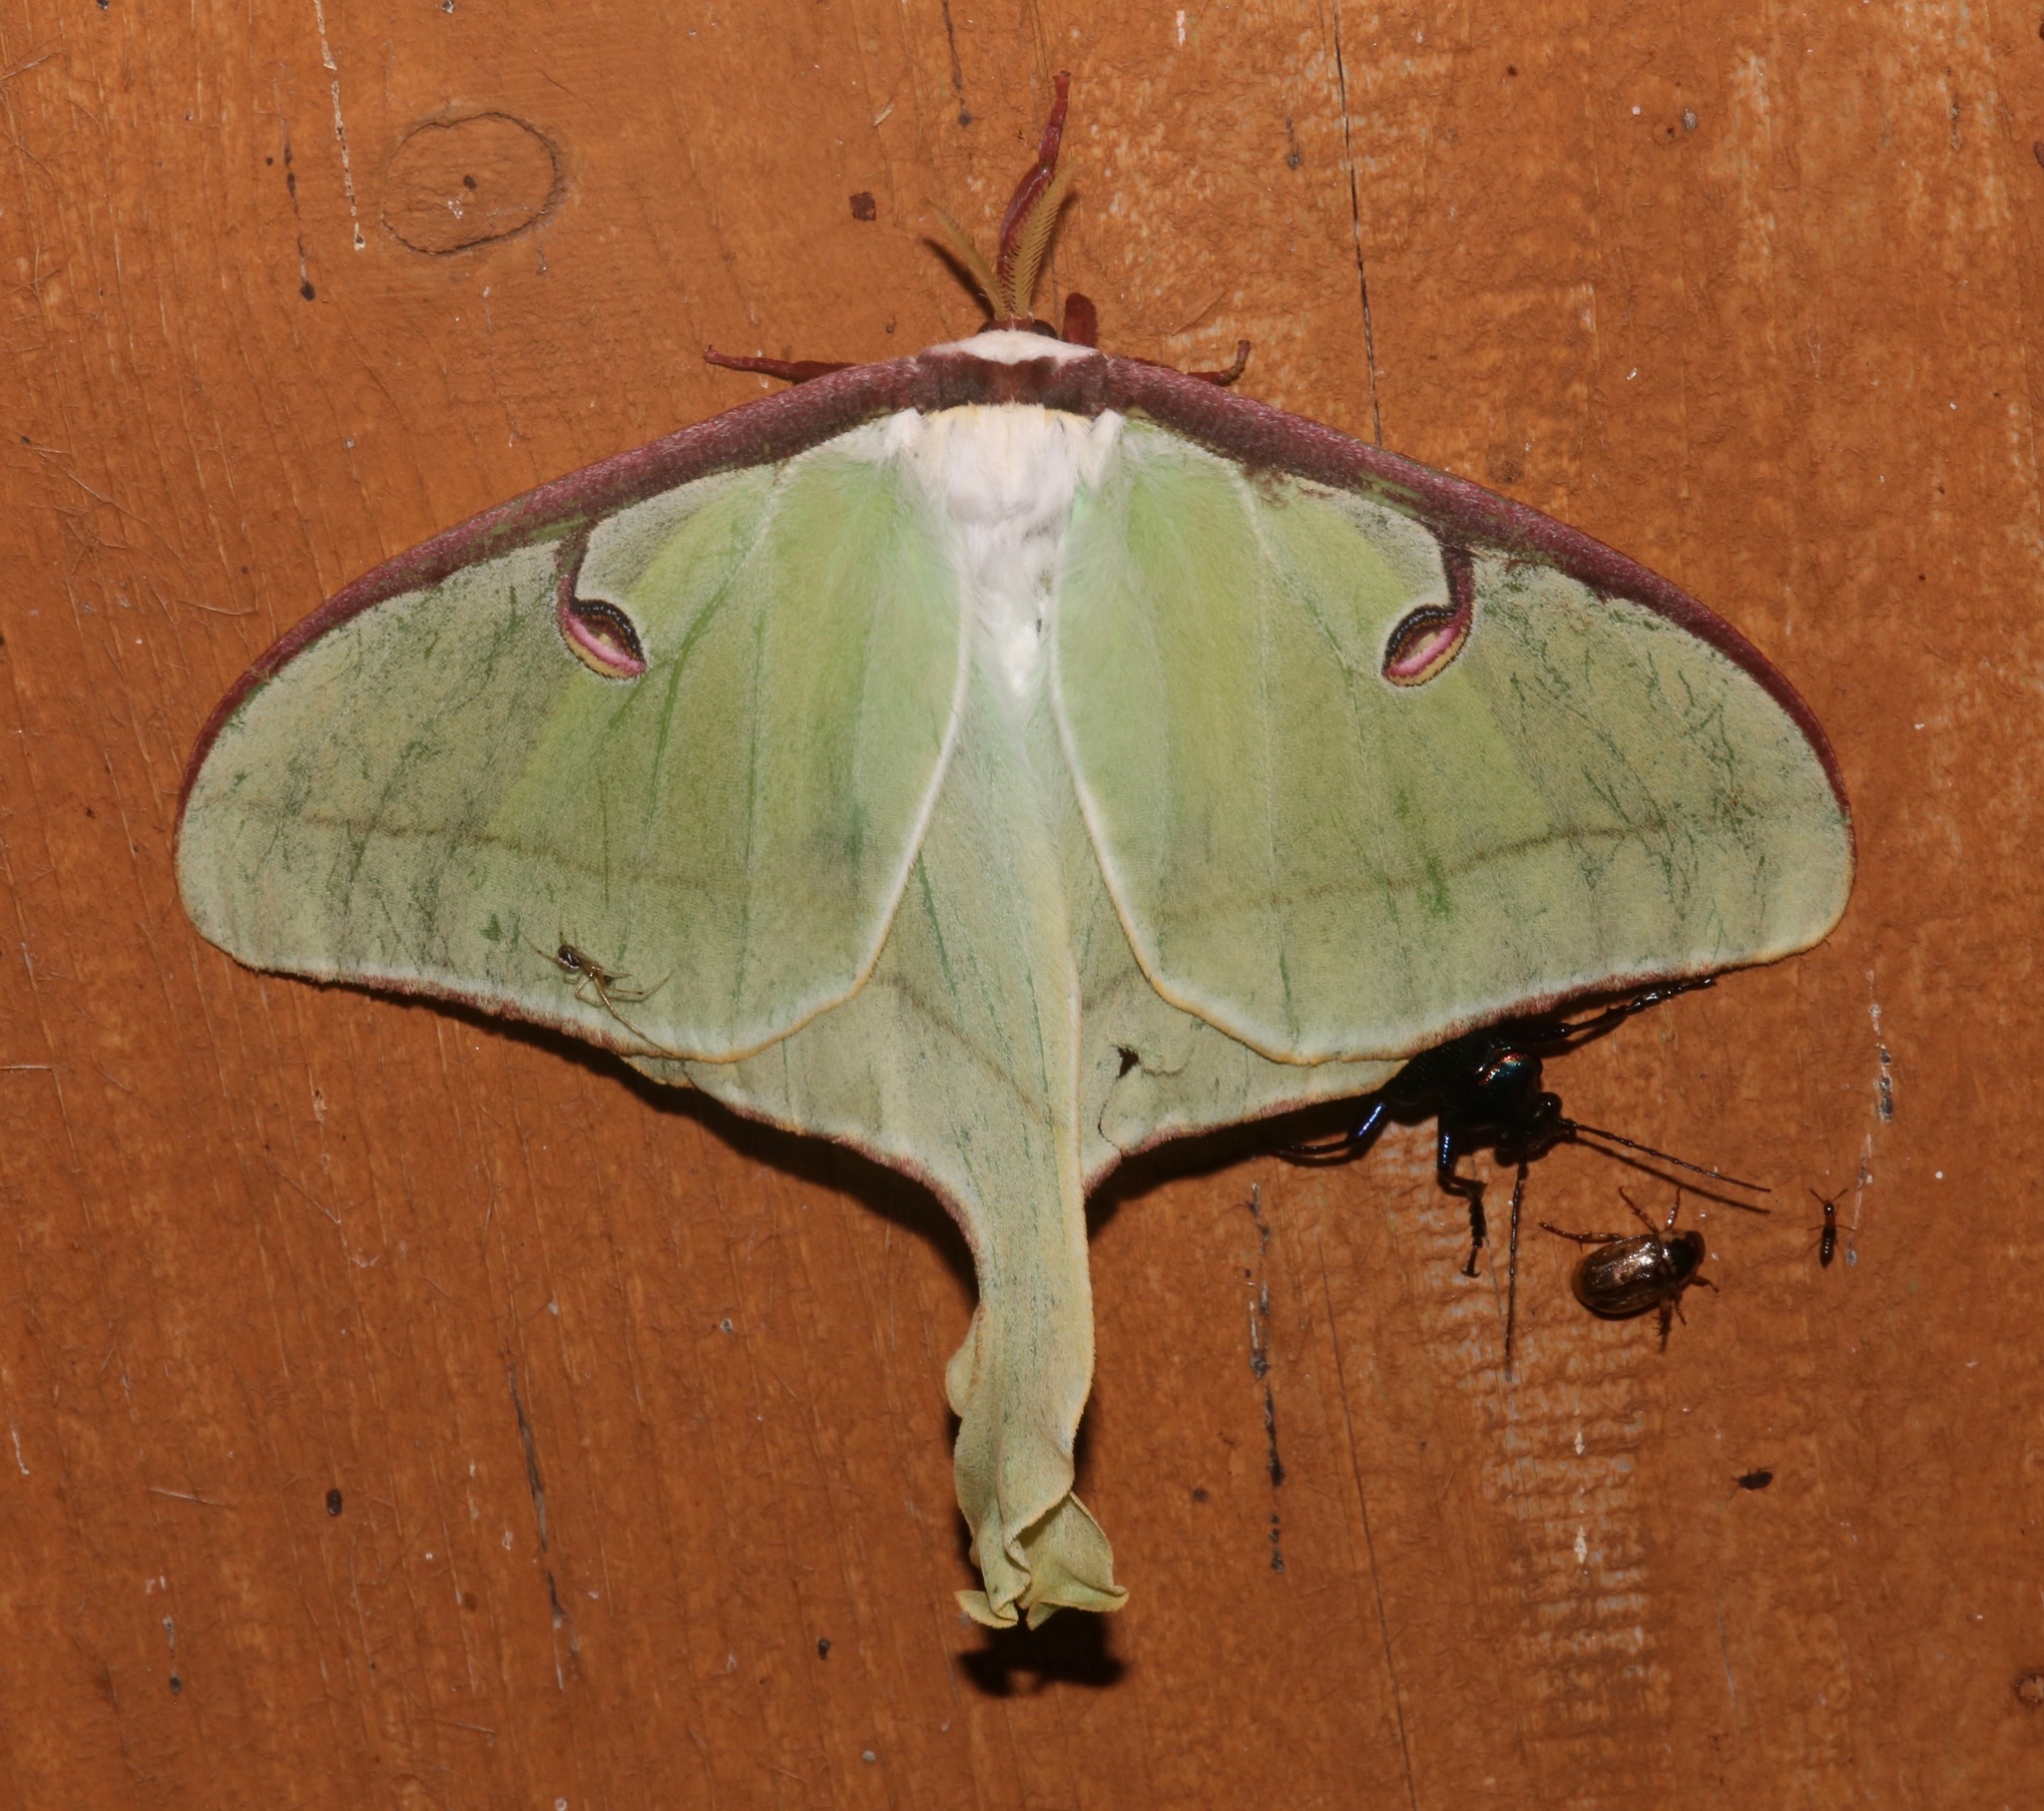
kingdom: Animalia
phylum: Arthropoda
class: Insecta
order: Lepidoptera
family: Saturniidae
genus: Actias
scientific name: Actias luna
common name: Luna moth
